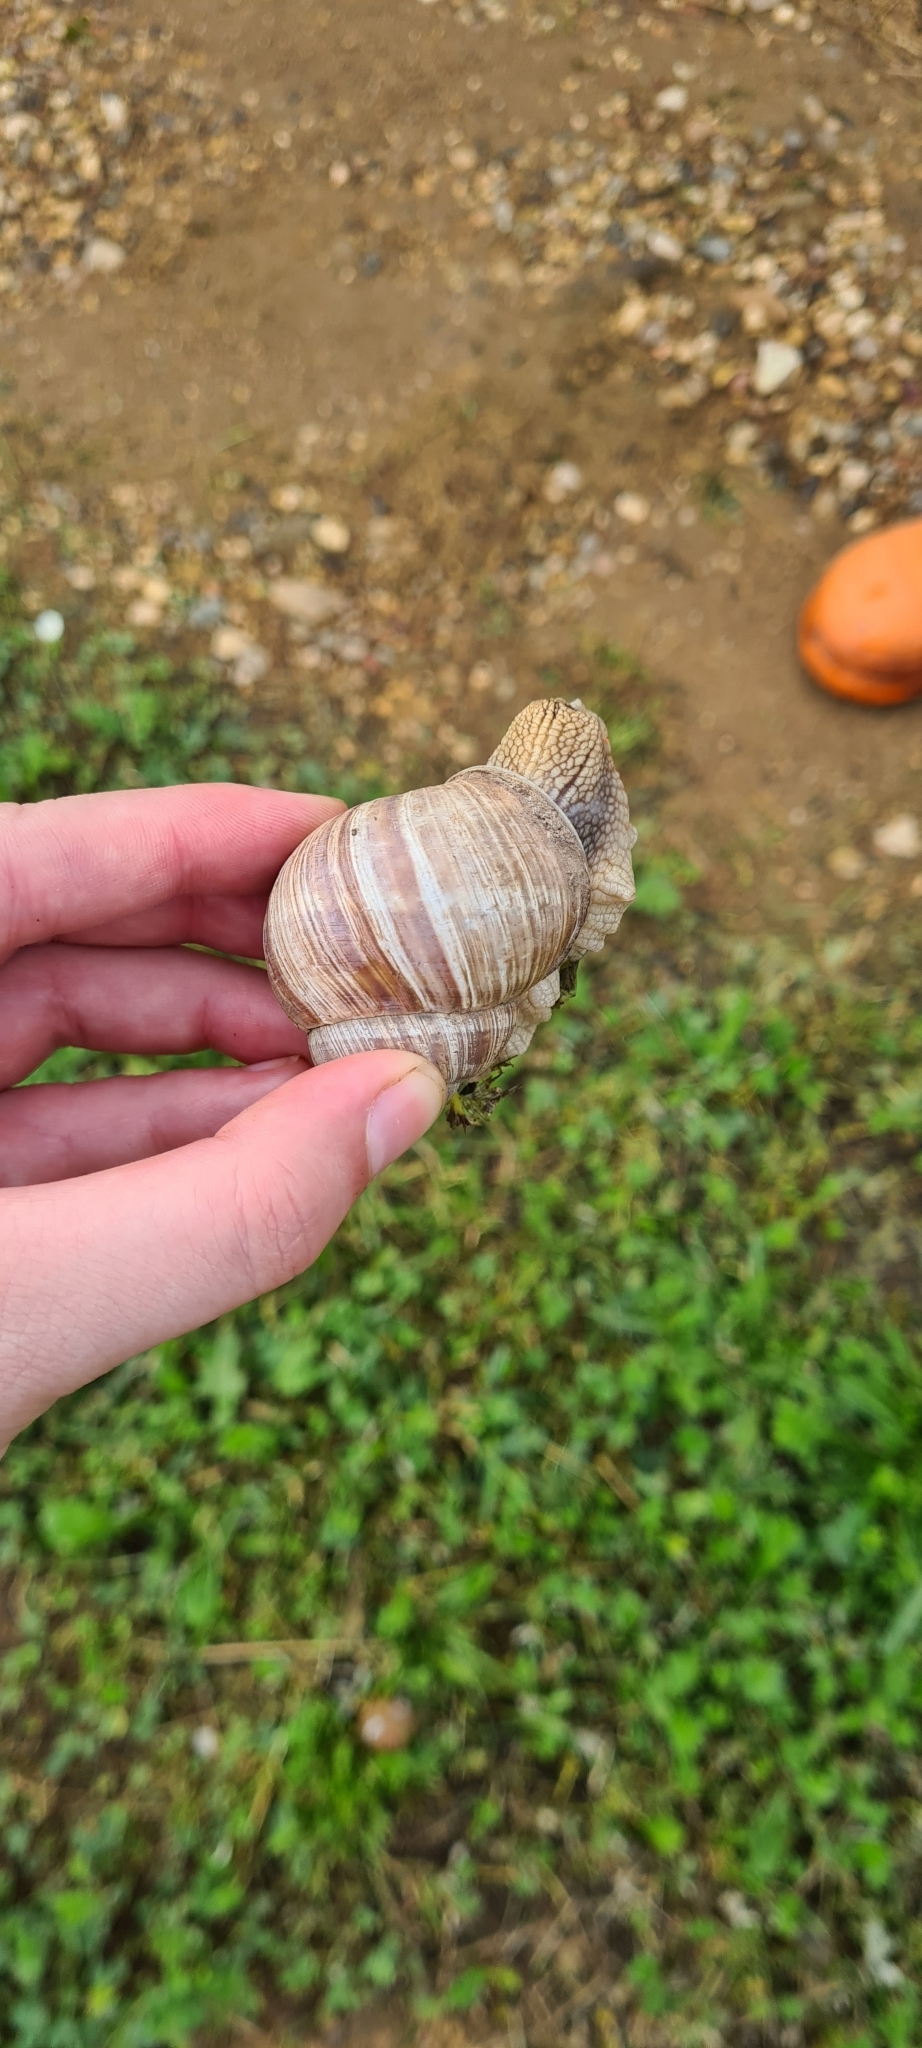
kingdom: Animalia
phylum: Mollusca
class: Gastropoda
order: Stylommatophora
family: Helicidae
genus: Helix
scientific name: Helix pomatia
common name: Roman snail
